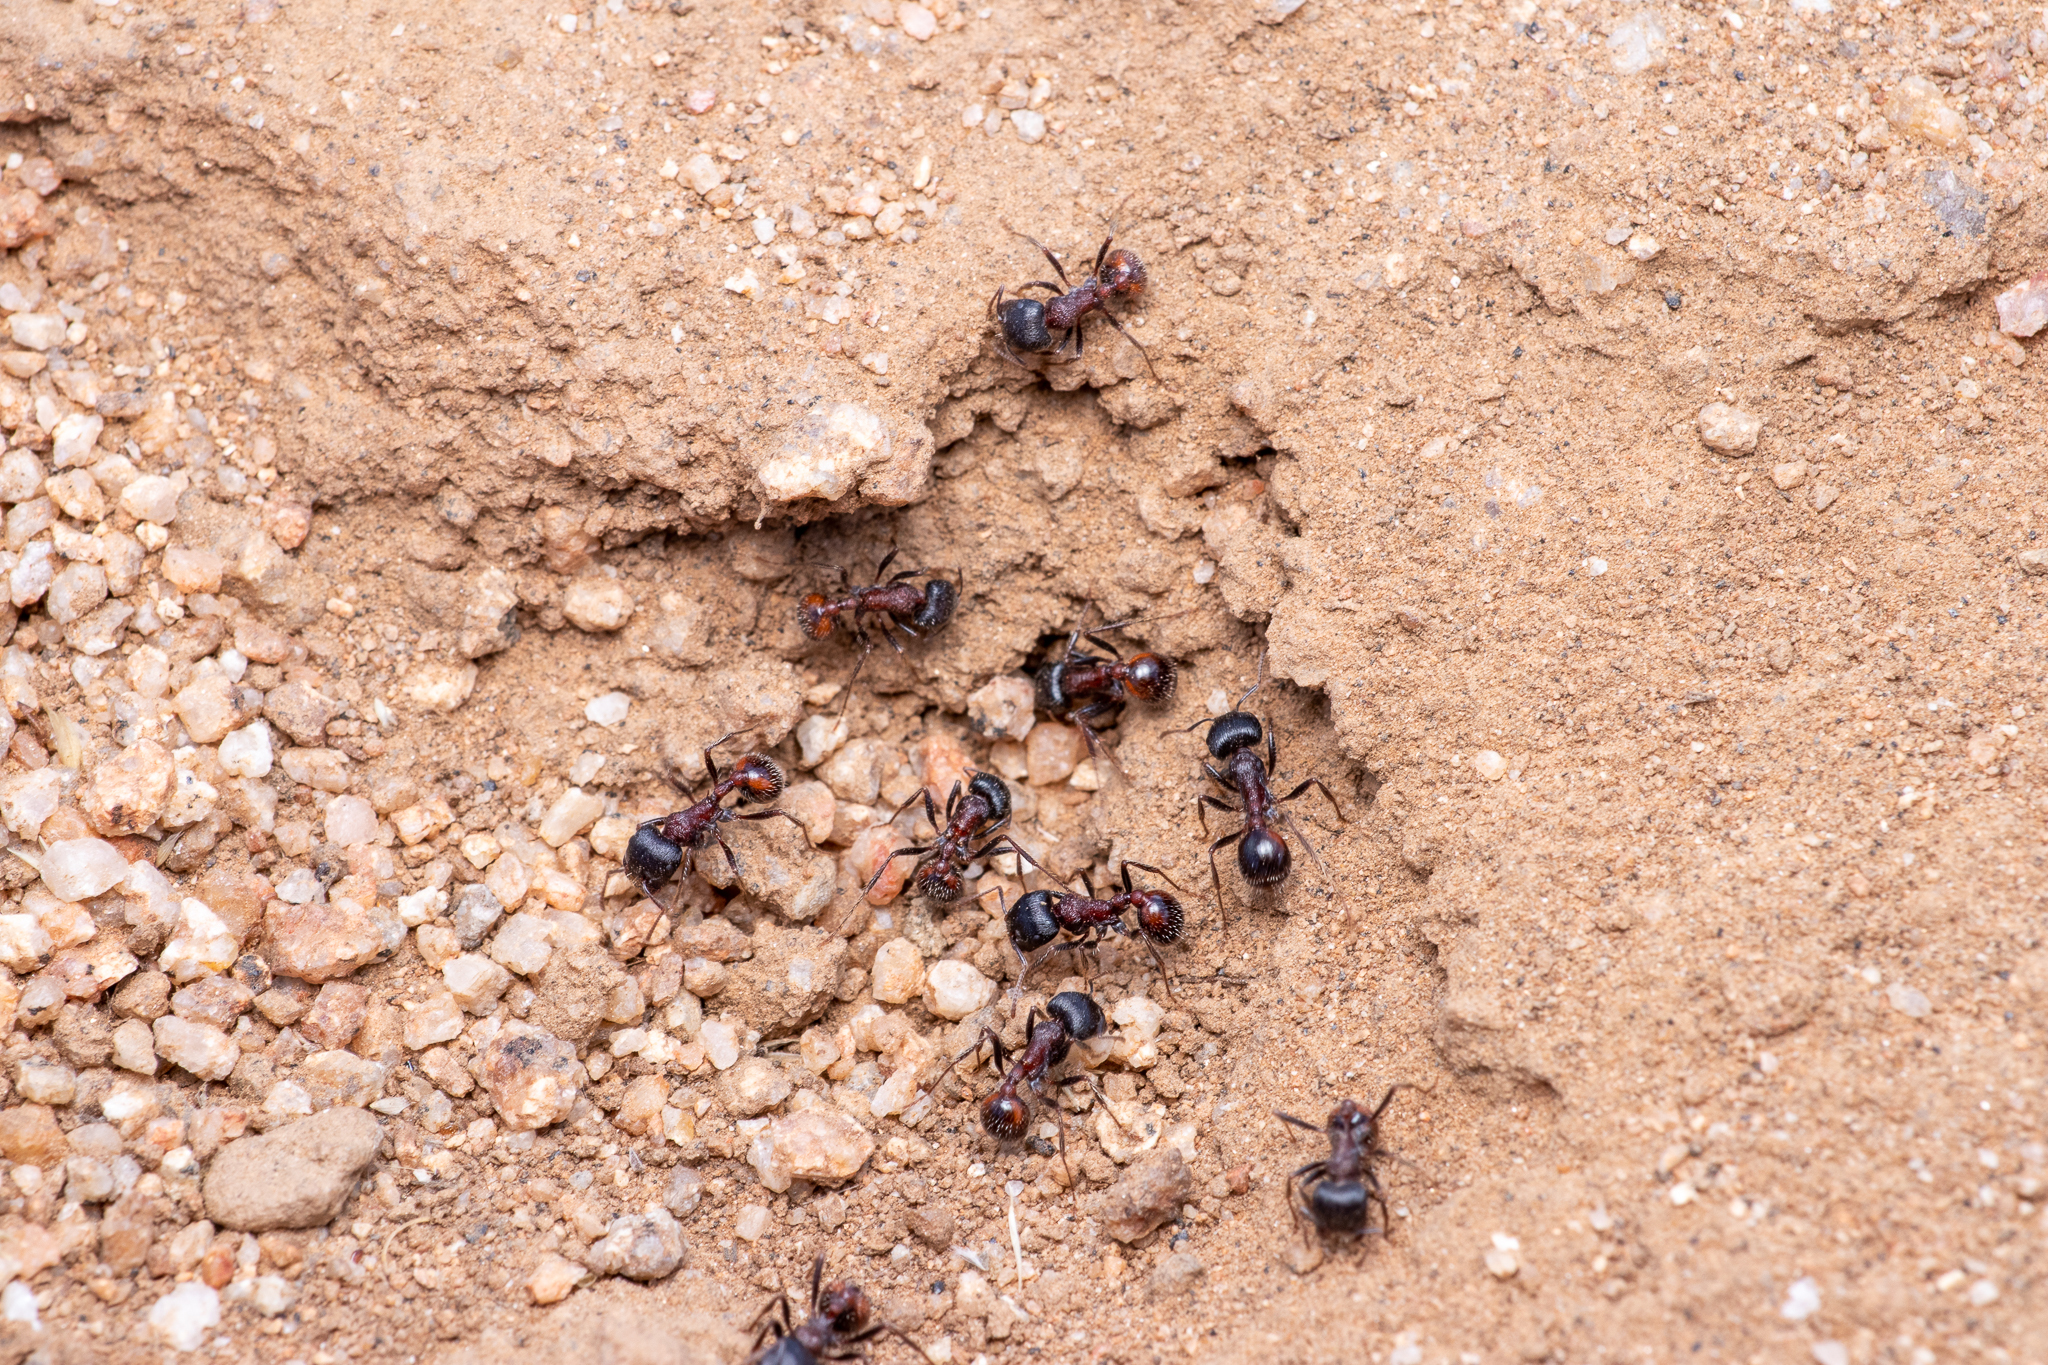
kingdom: Animalia
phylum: Arthropoda
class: Insecta
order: Hymenoptera
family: Formicidae
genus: Pogonomyrmex
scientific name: Pogonomyrmex rugosus
